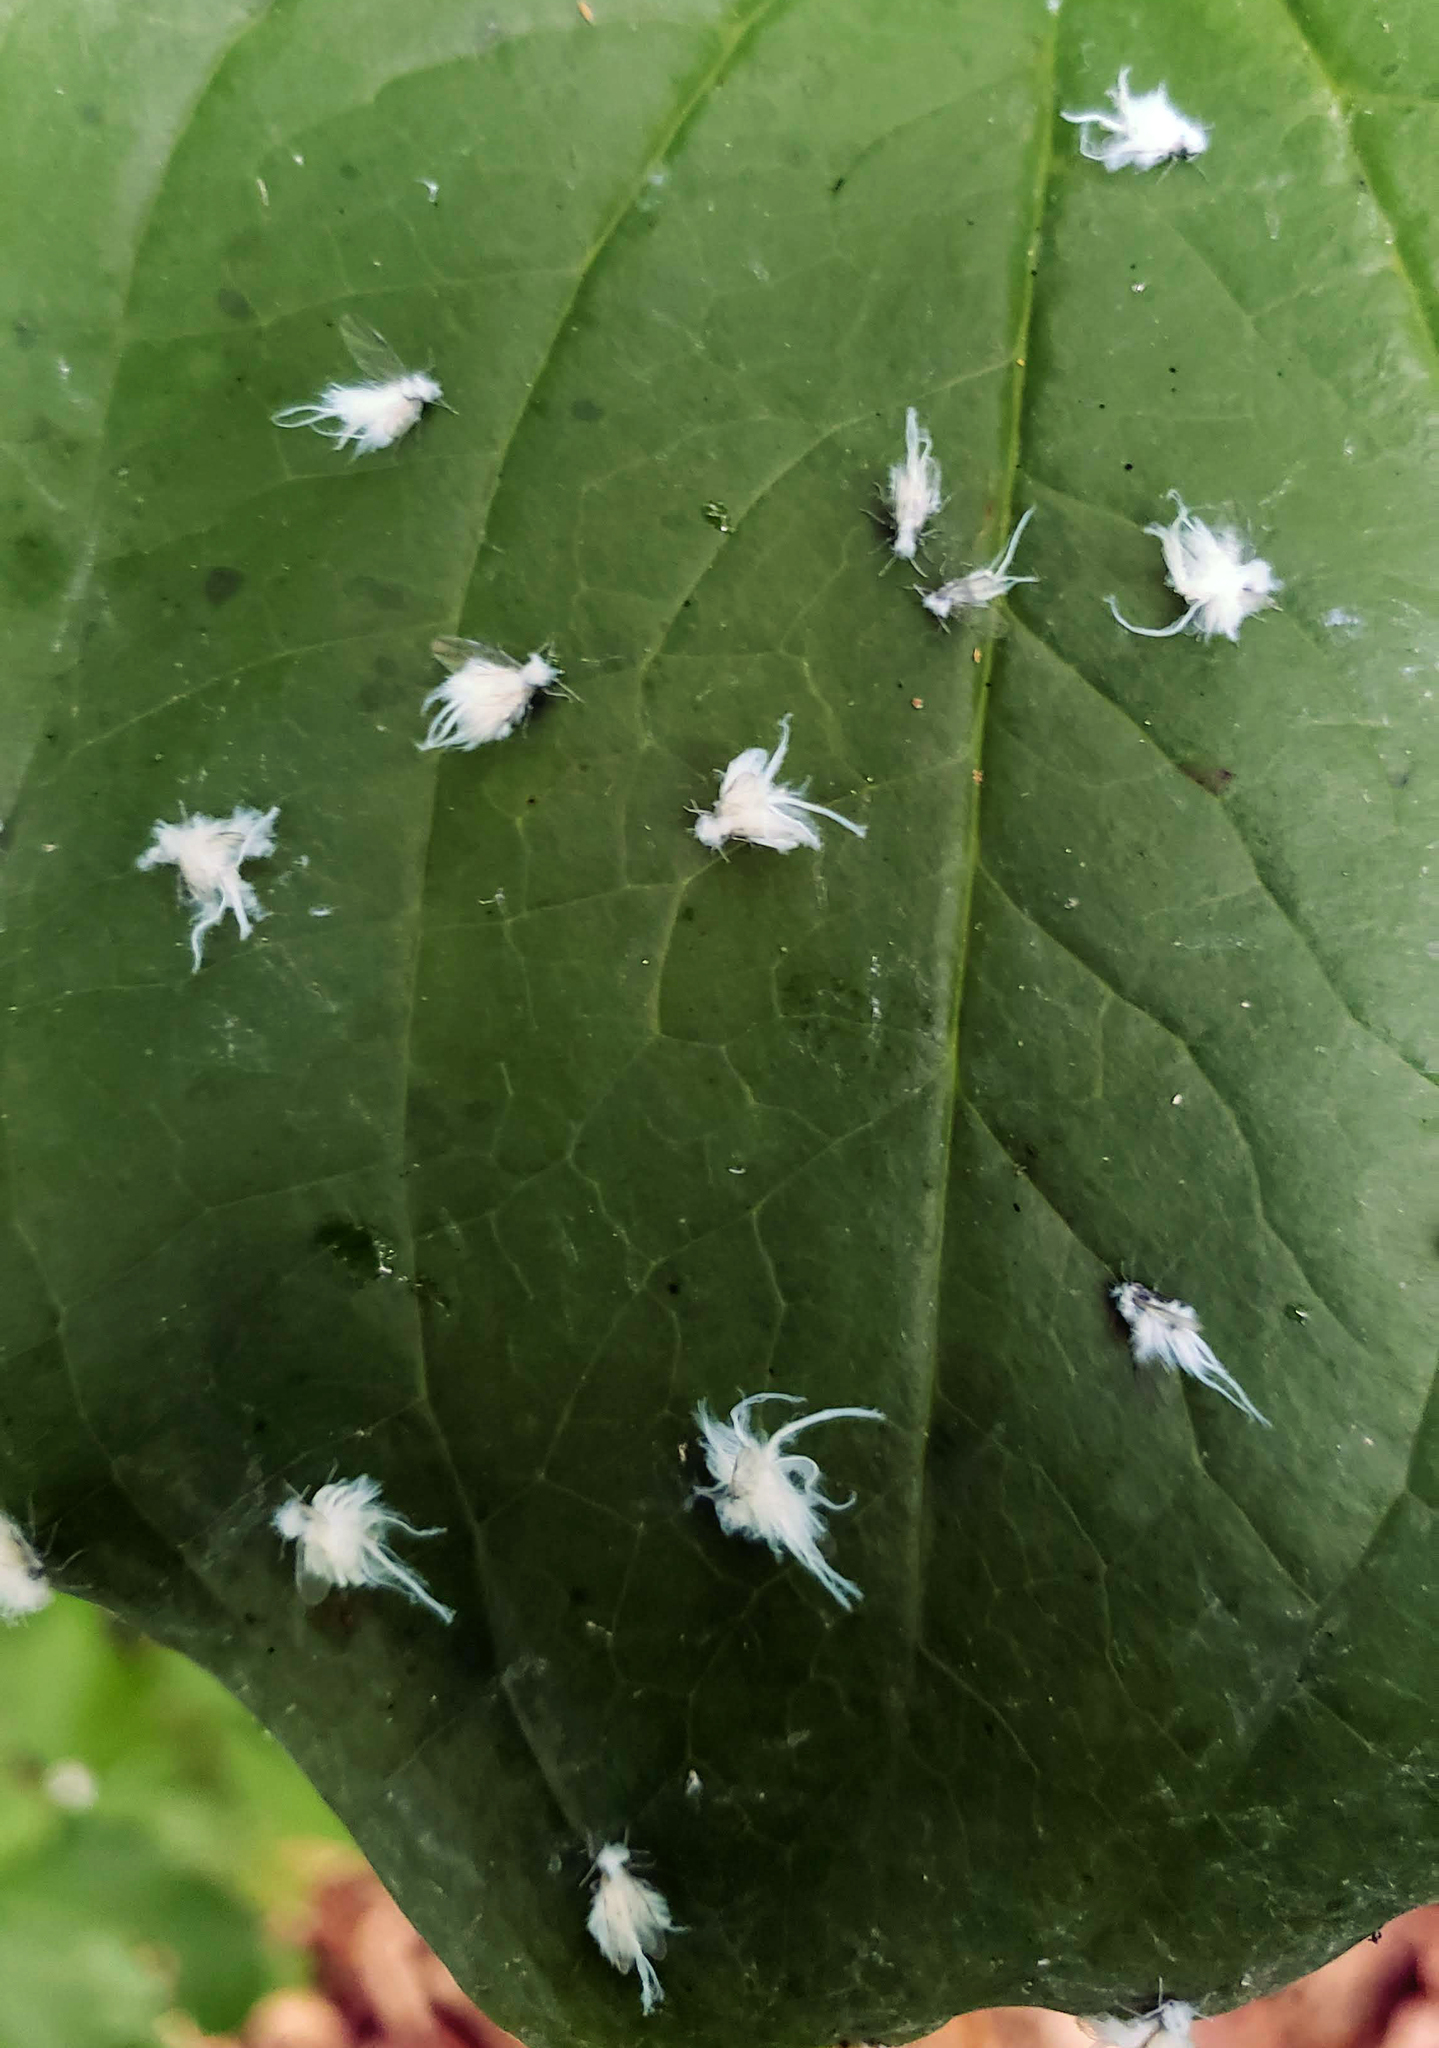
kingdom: Animalia
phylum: Arthropoda
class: Insecta
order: Hemiptera
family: Eriosomatidae
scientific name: Eriosomatidae
